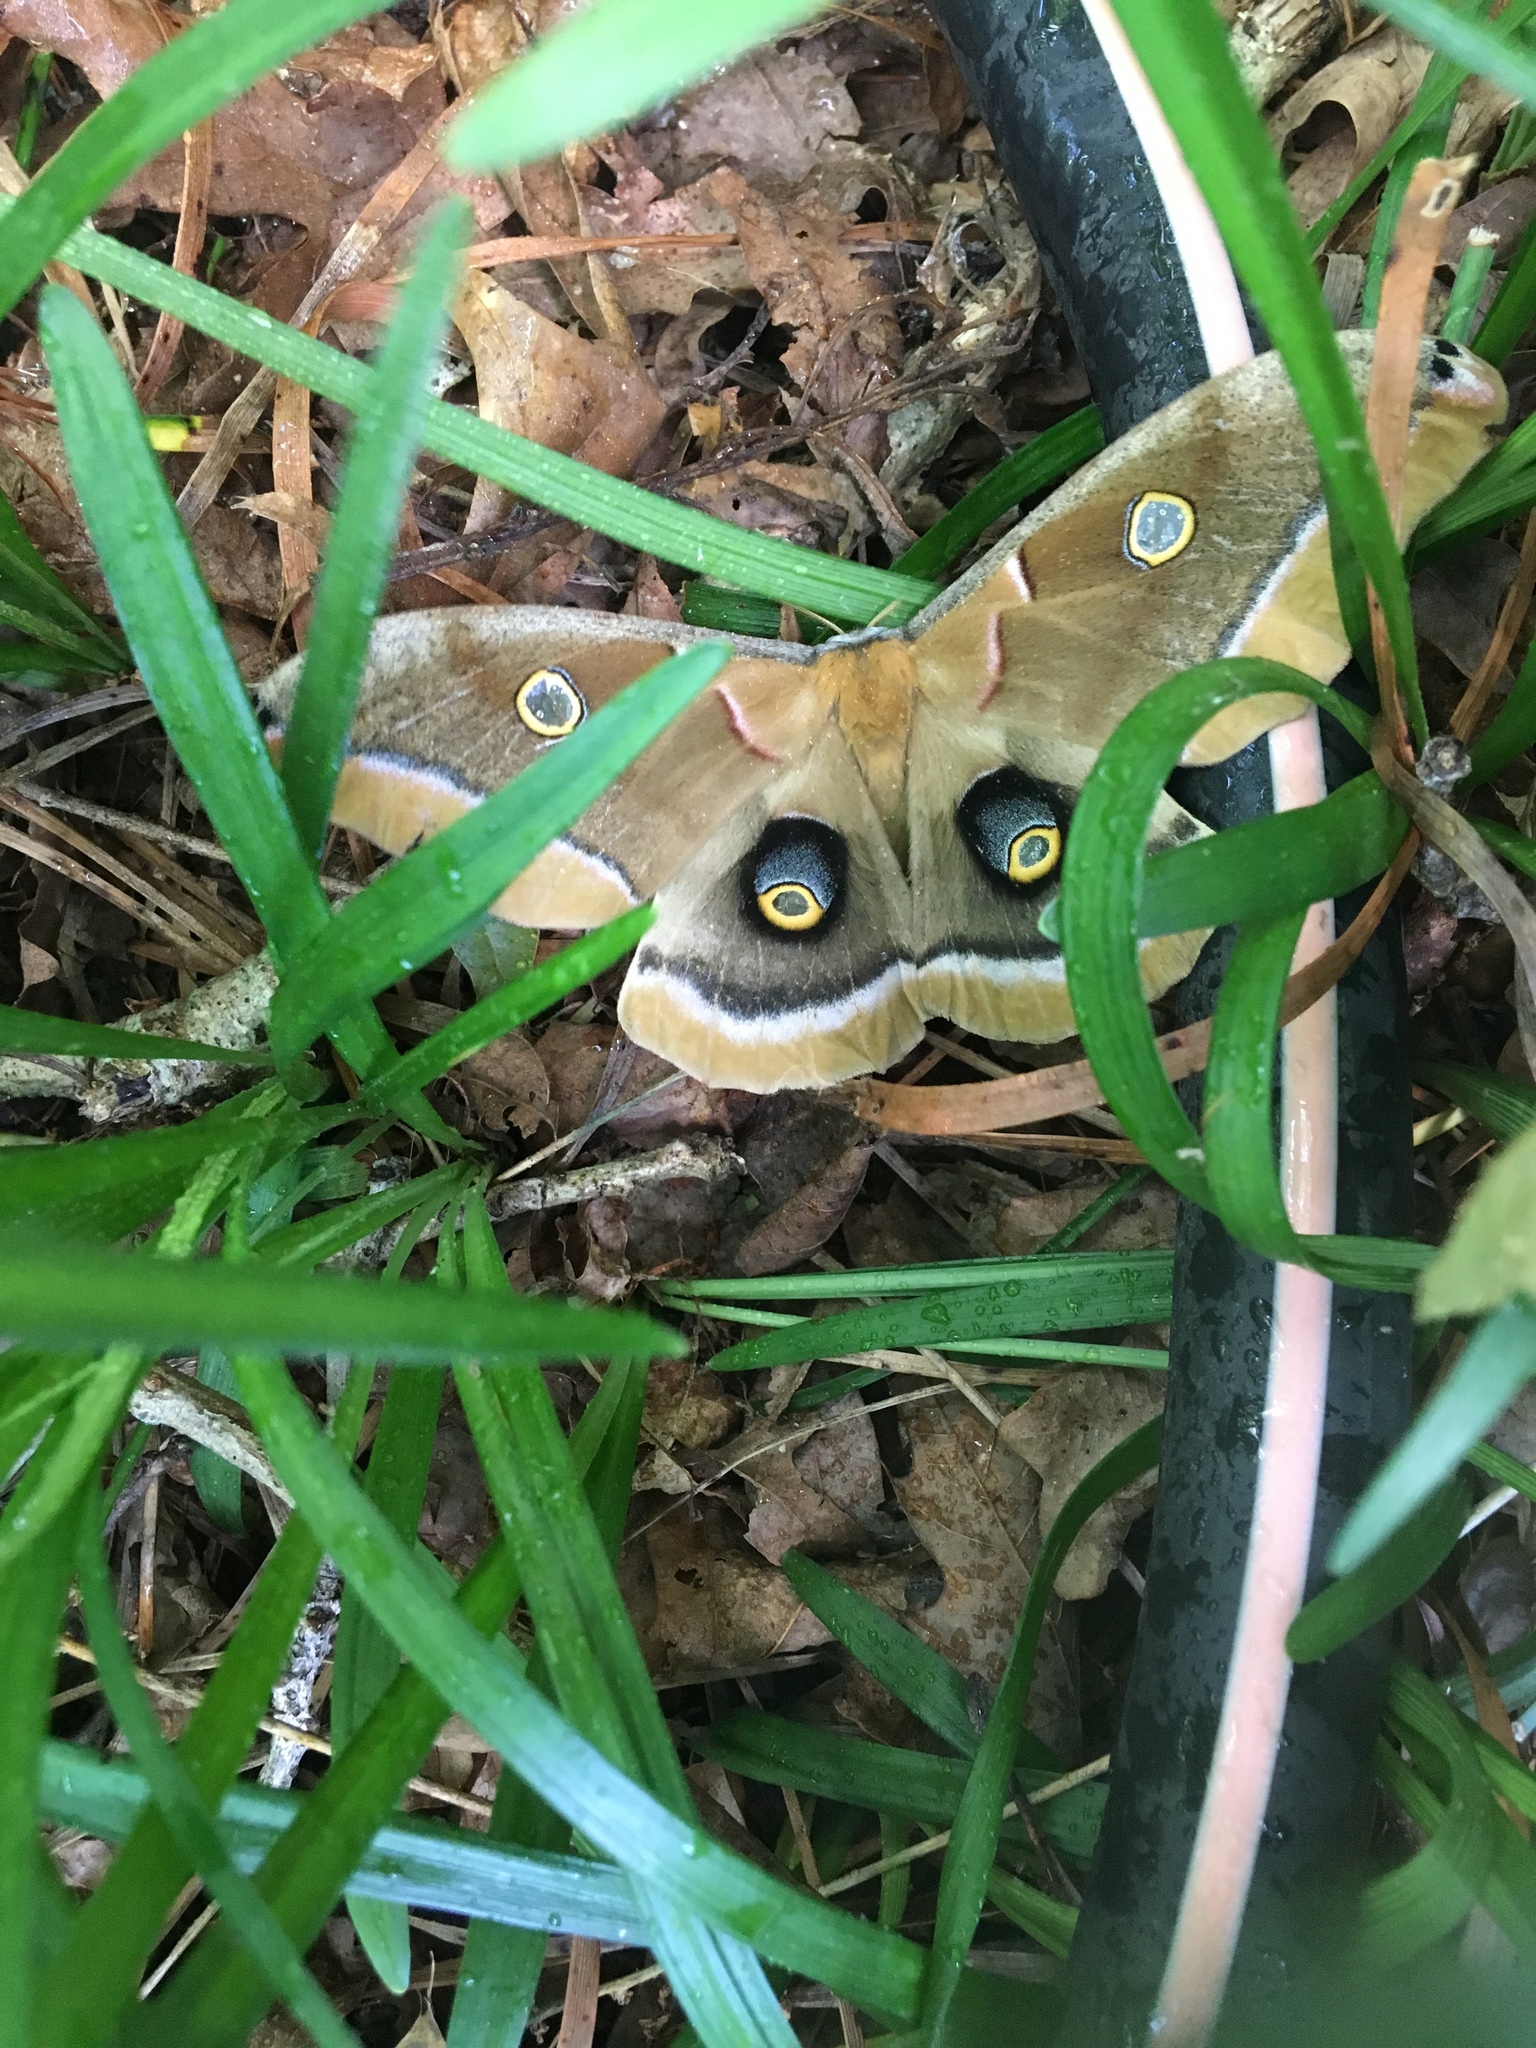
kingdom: Animalia
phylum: Arthropoda
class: Insecta
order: Lepidoptera
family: Saturniidae
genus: Antheraea
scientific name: Antheraea polyphemus
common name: Polyphemus moth
